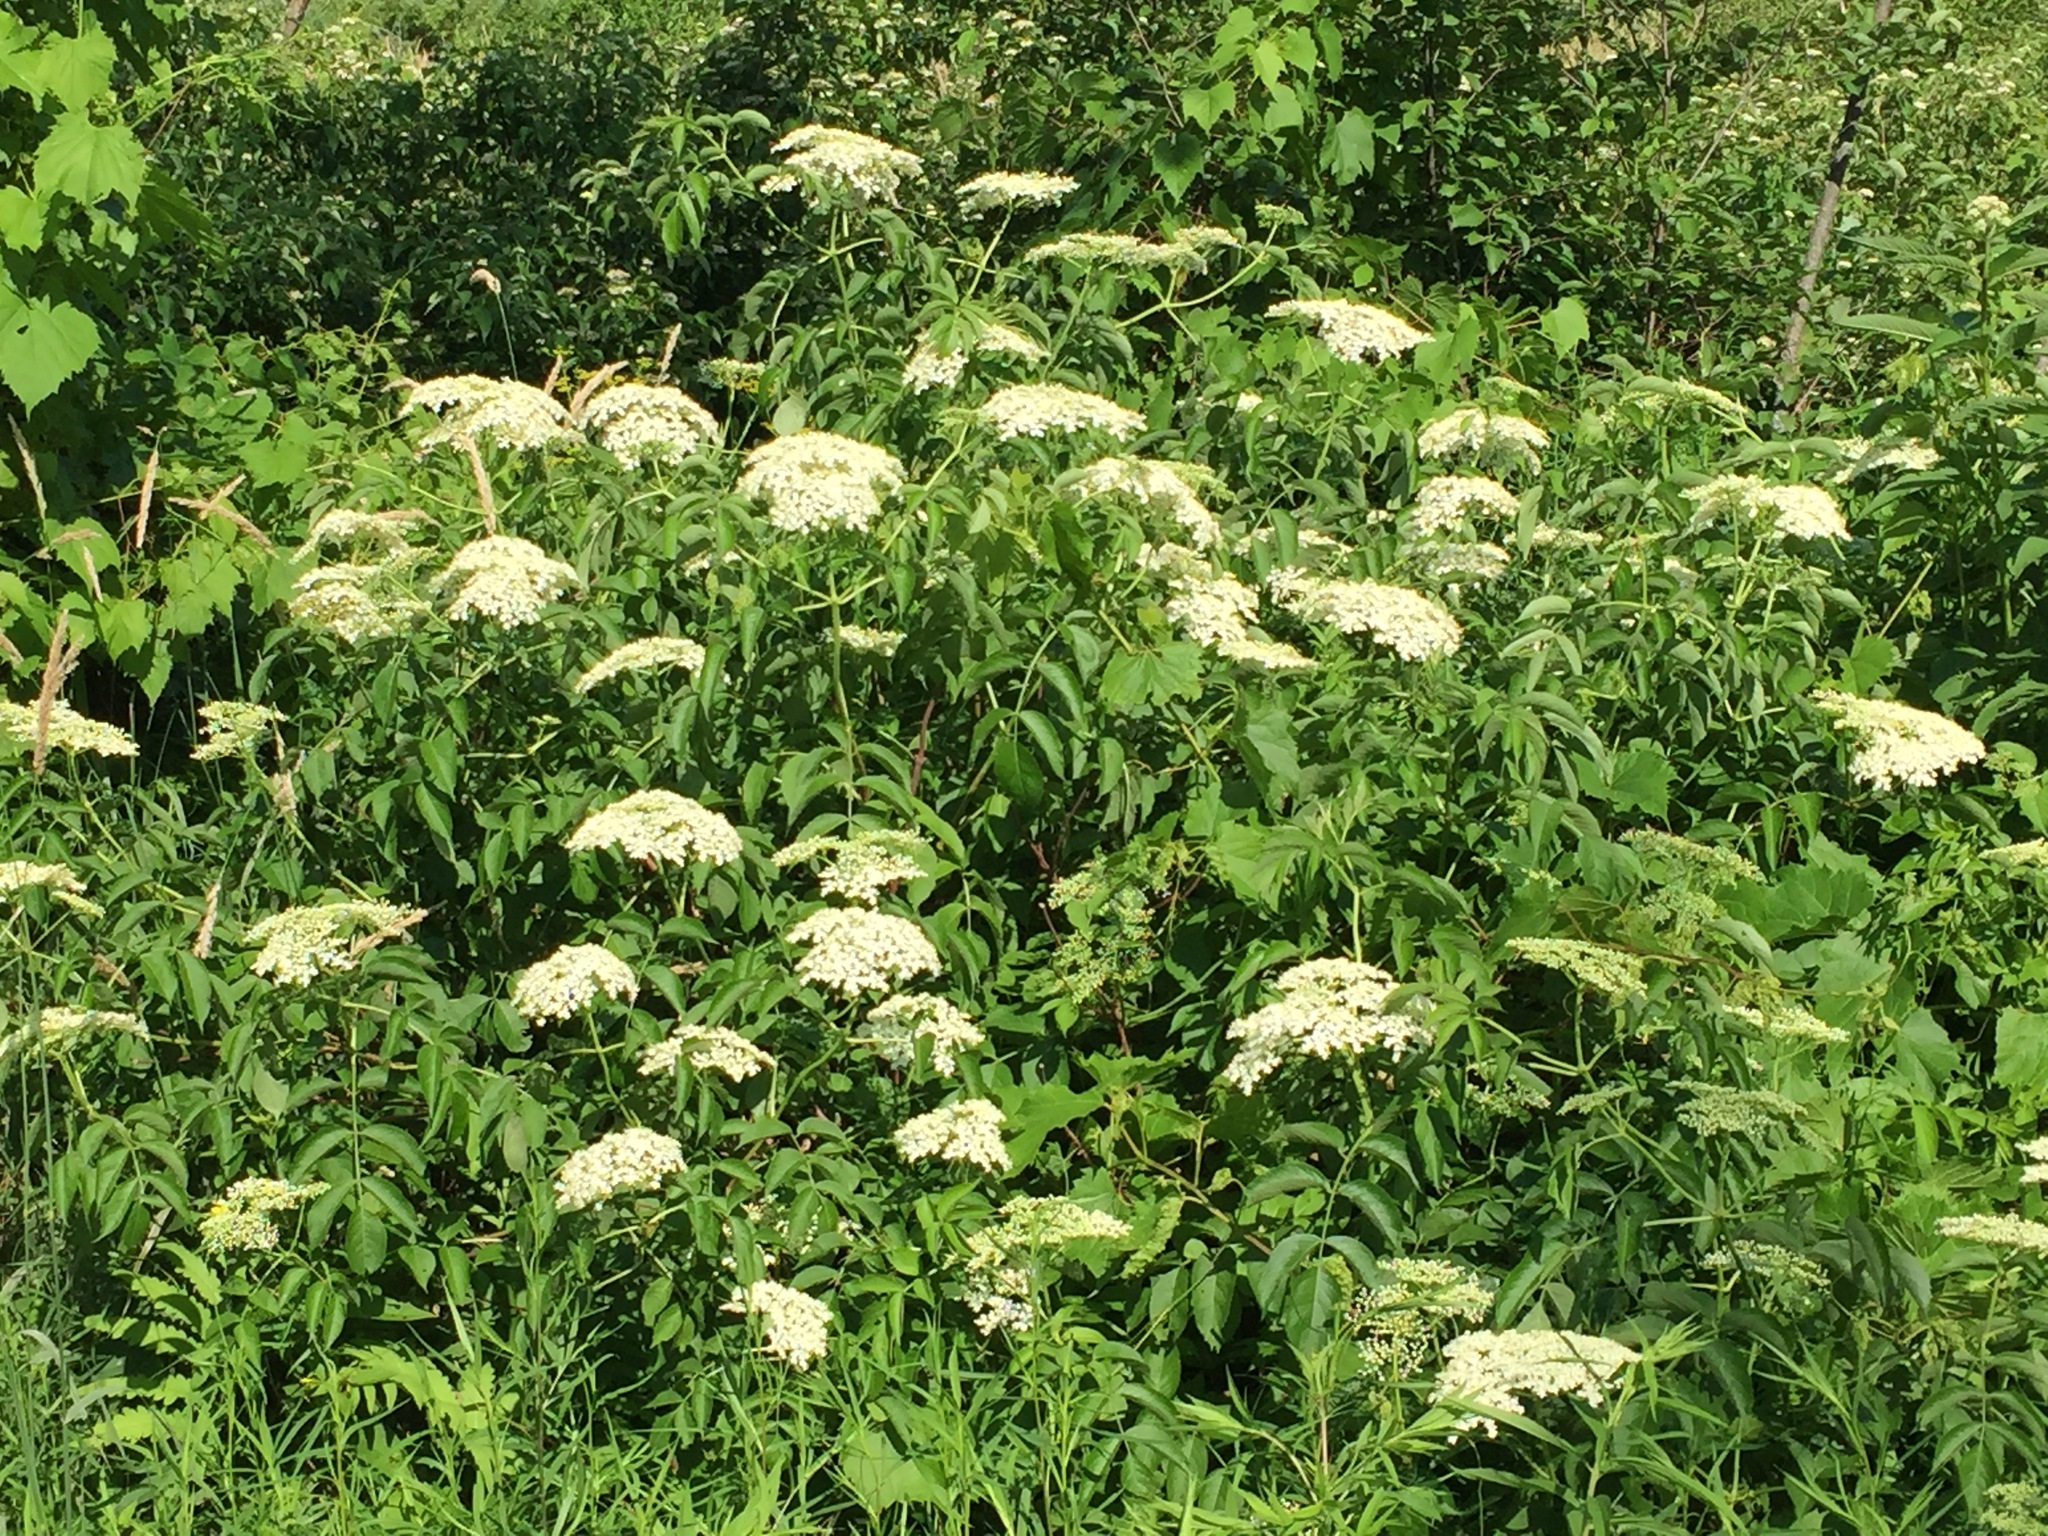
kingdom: Plantae
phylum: Tracheophyta
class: Magnoliopsida
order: Dipsacales
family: Viburnaceae
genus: Sambucus
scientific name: Sambucus canadensis
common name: American elder
